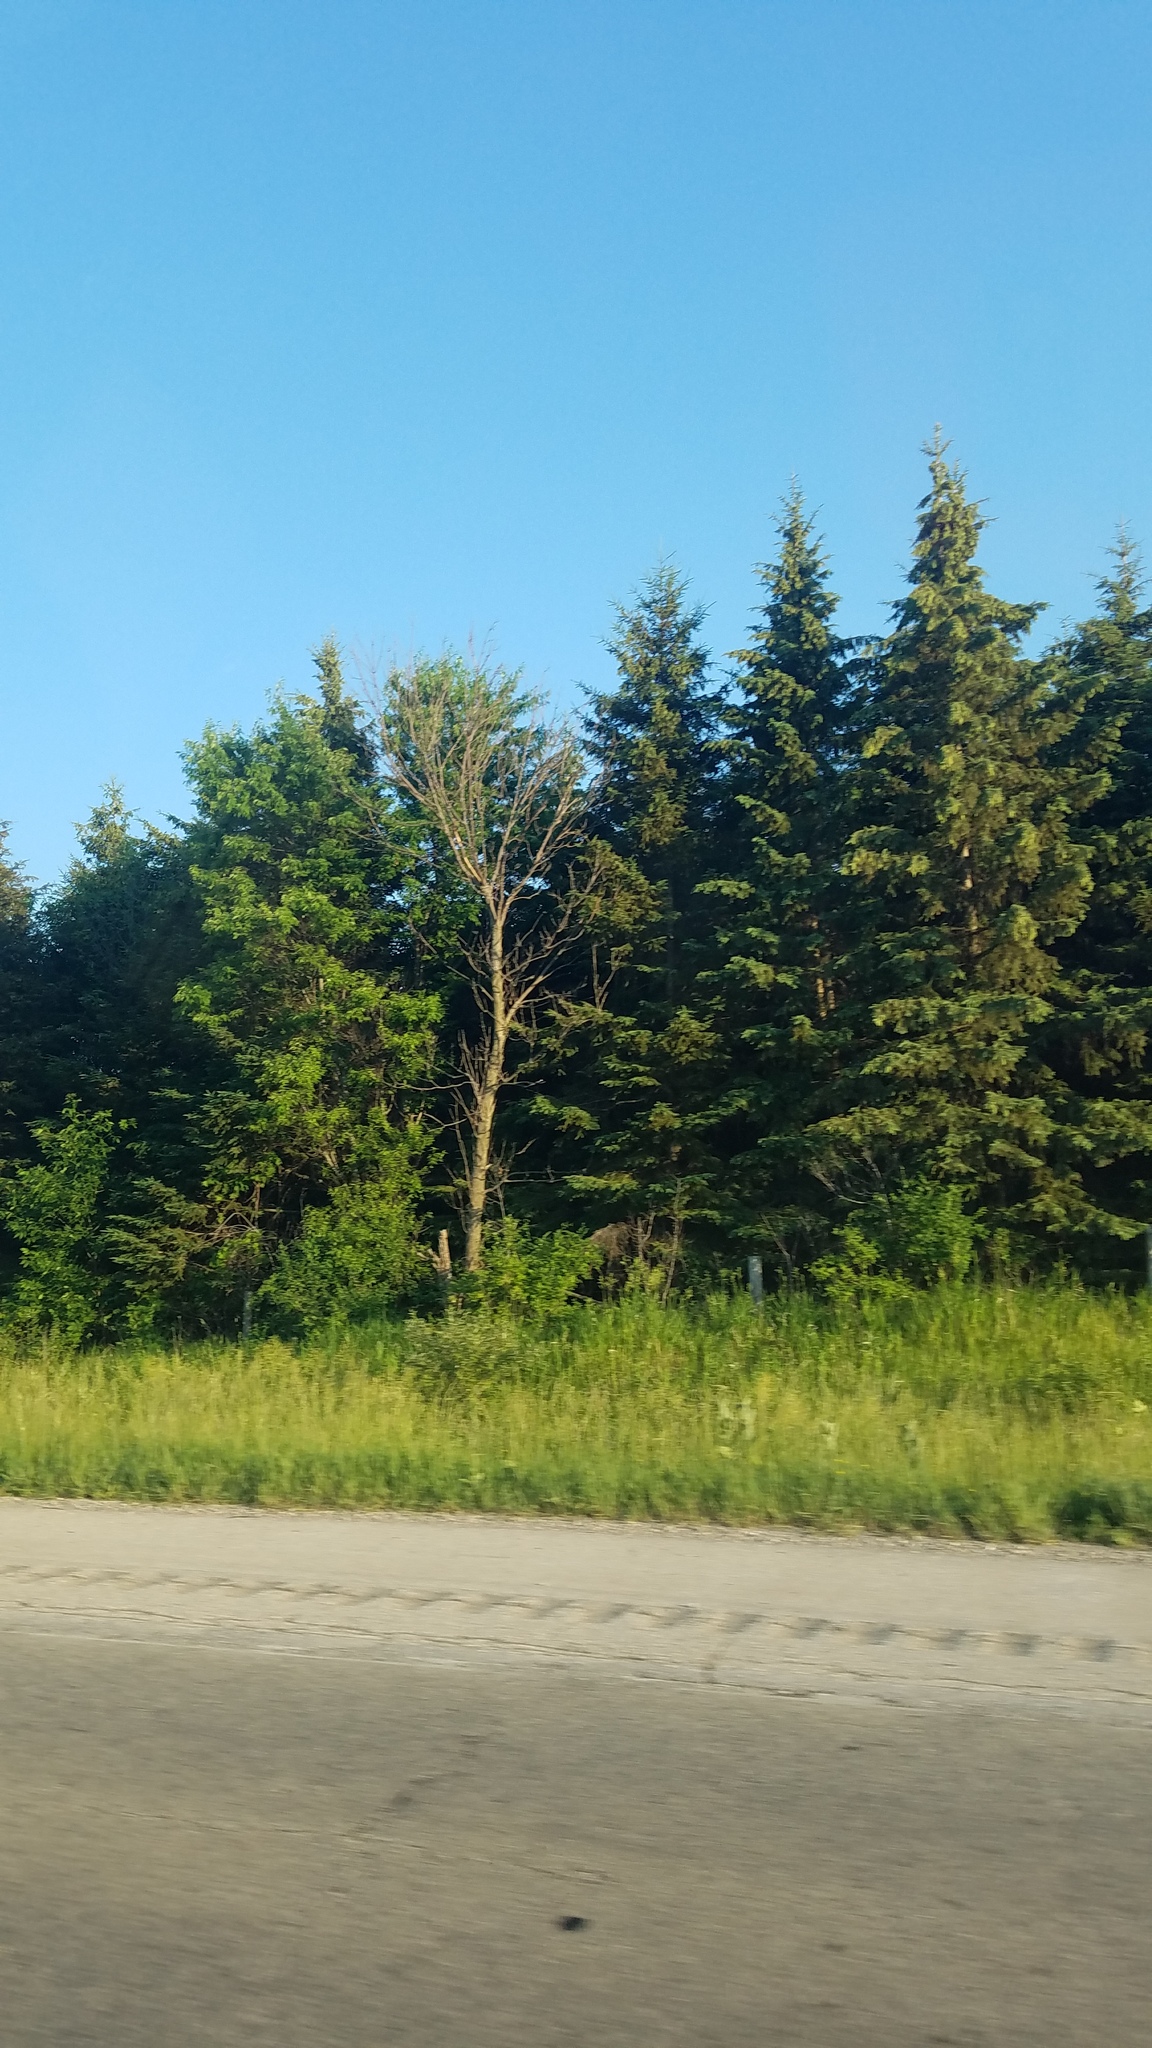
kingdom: Plantae
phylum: Tracheophyta
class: Pinopsida
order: Pinales
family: Pinaceae
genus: Picea
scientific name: Picea glauca
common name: White spruce
